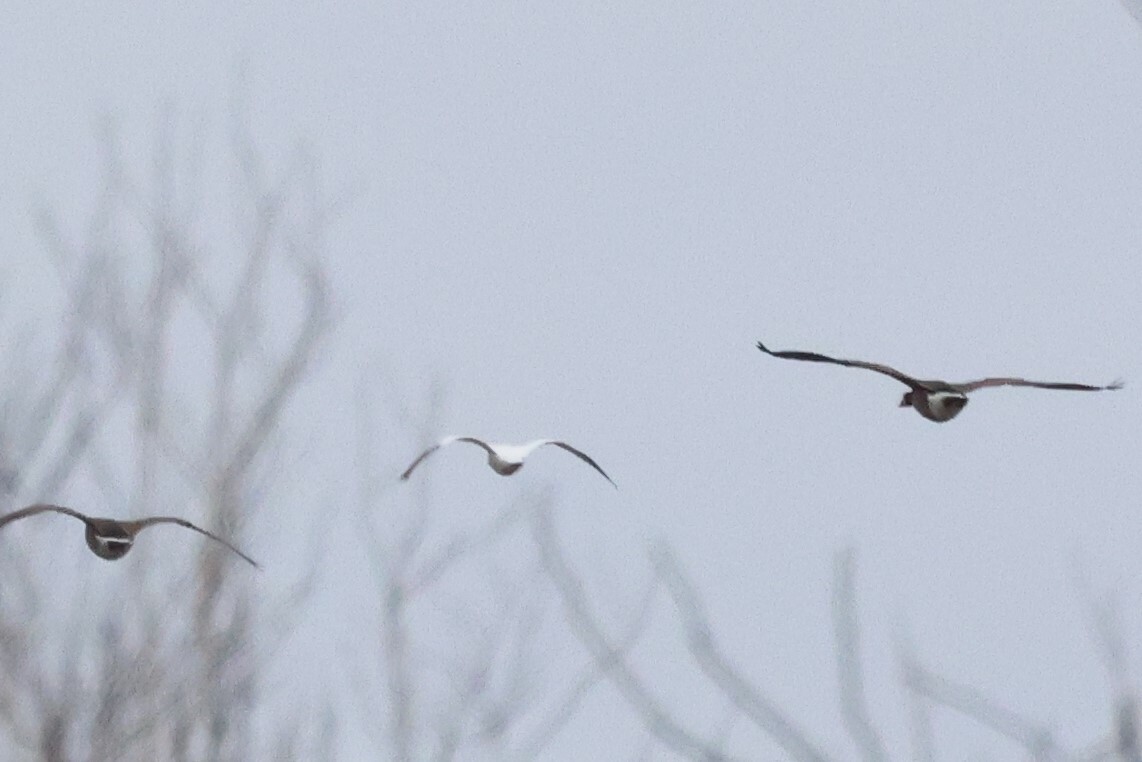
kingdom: Animalia
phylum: Chordata
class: Aves
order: Anseriformes
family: Anatidae
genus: Anser
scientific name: Anser caerulescens
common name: Snow goose
